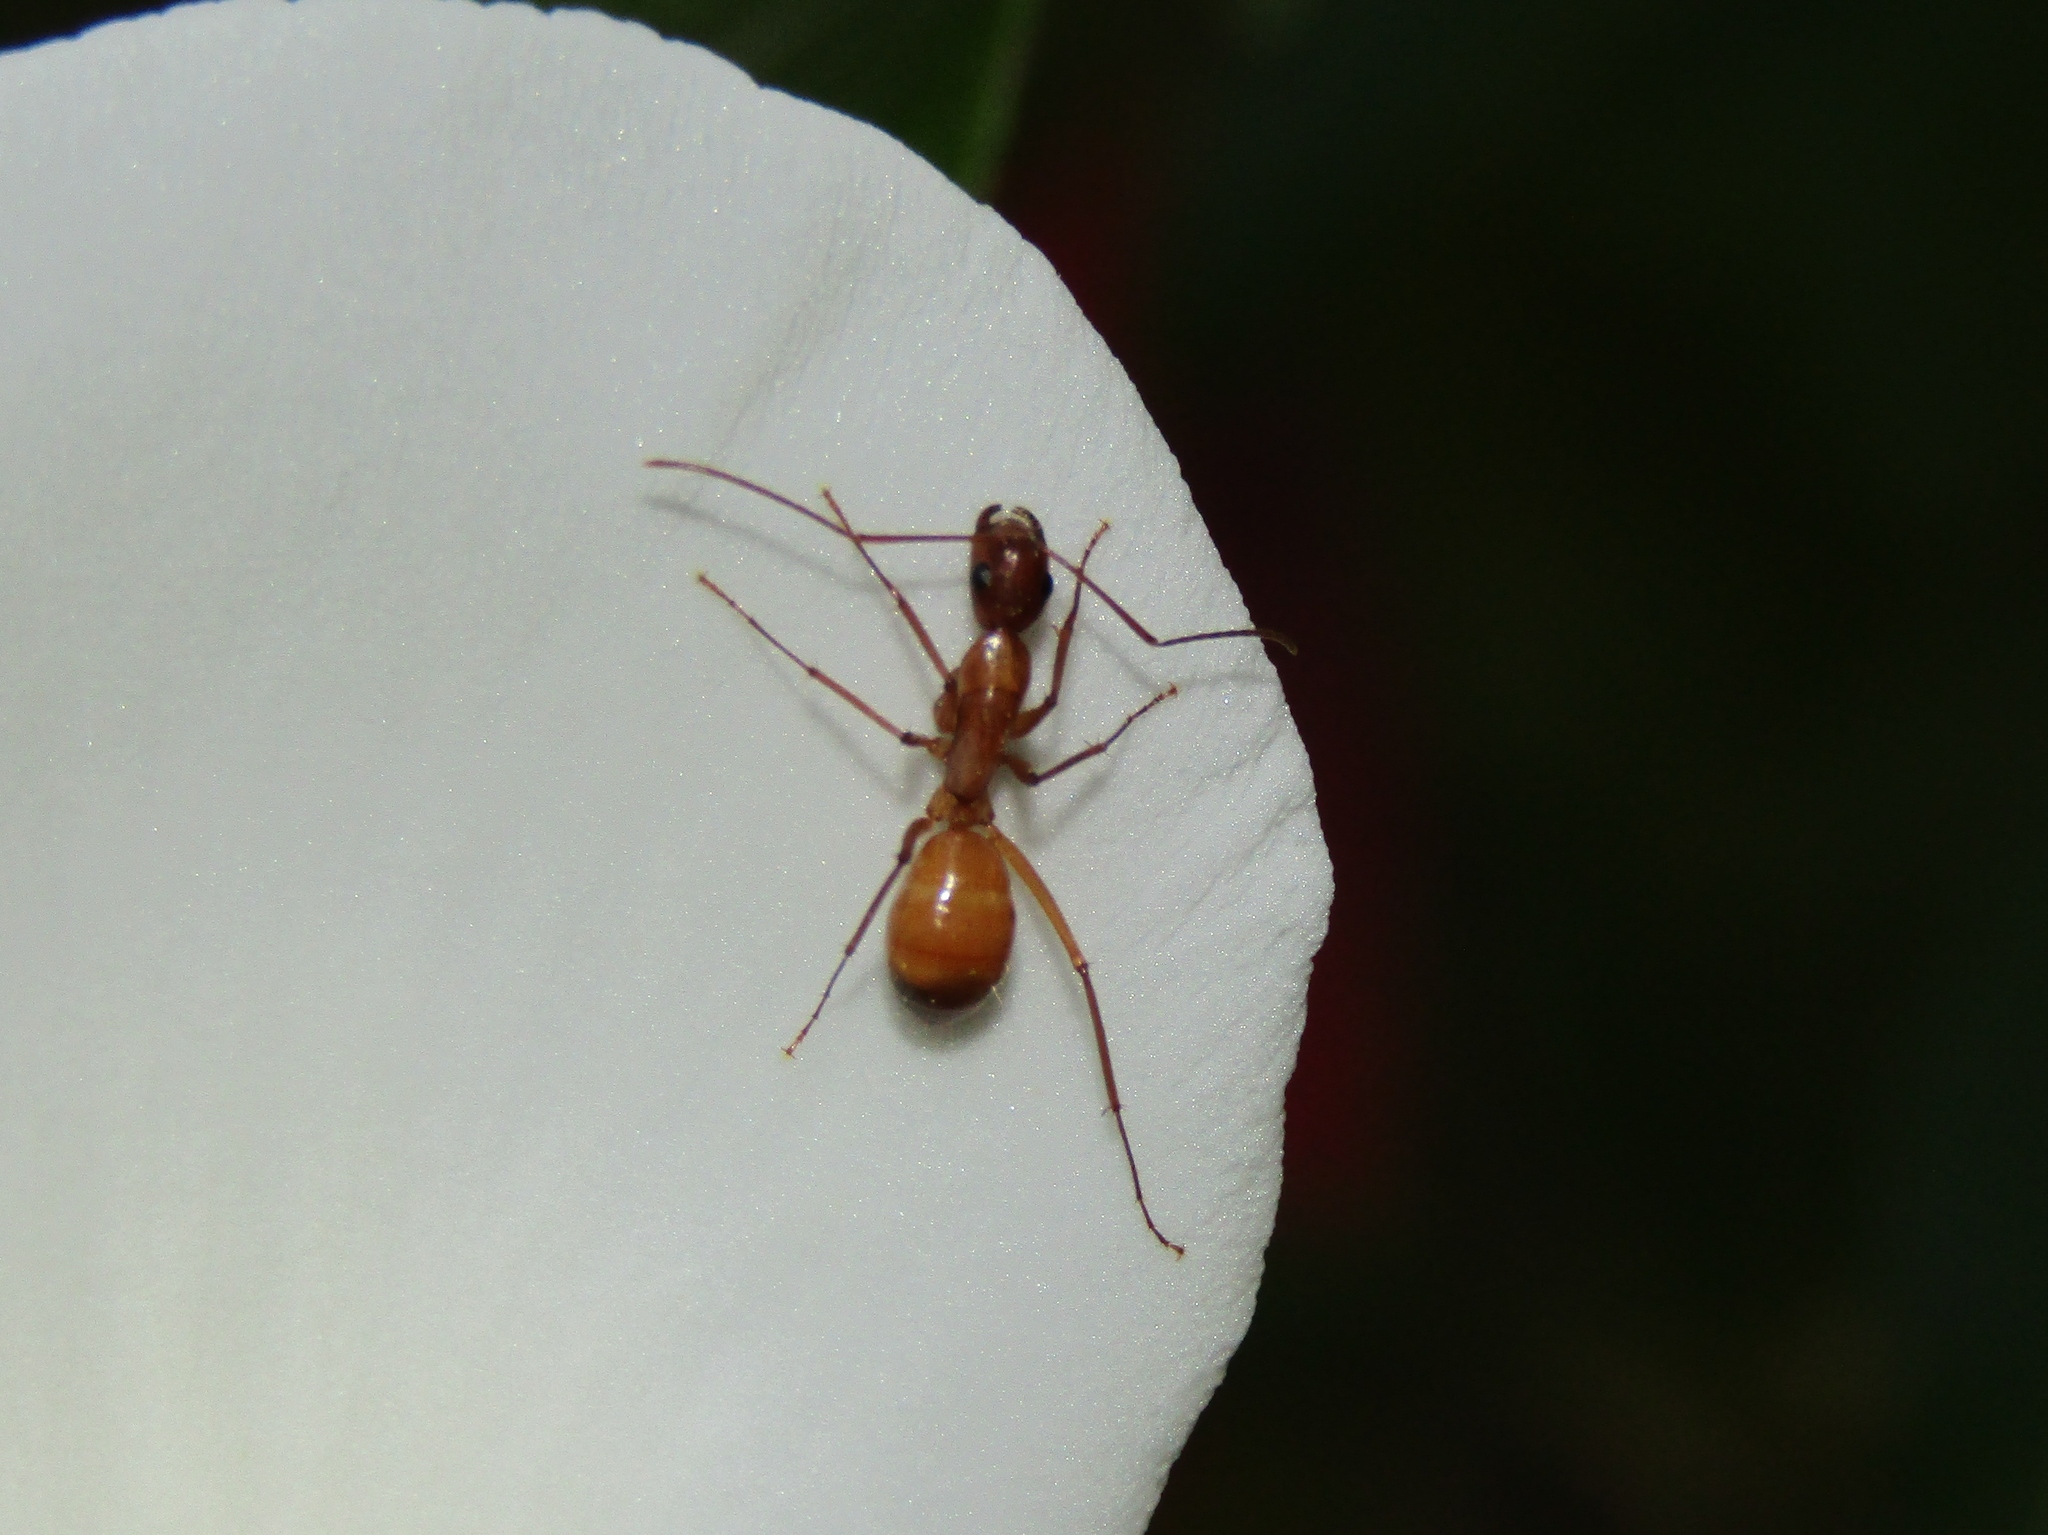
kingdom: Animalia
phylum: Arthropoda
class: Insecta
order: Hymenoptera
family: Formicidae
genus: Camponotus
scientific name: Camponotus castaneus
